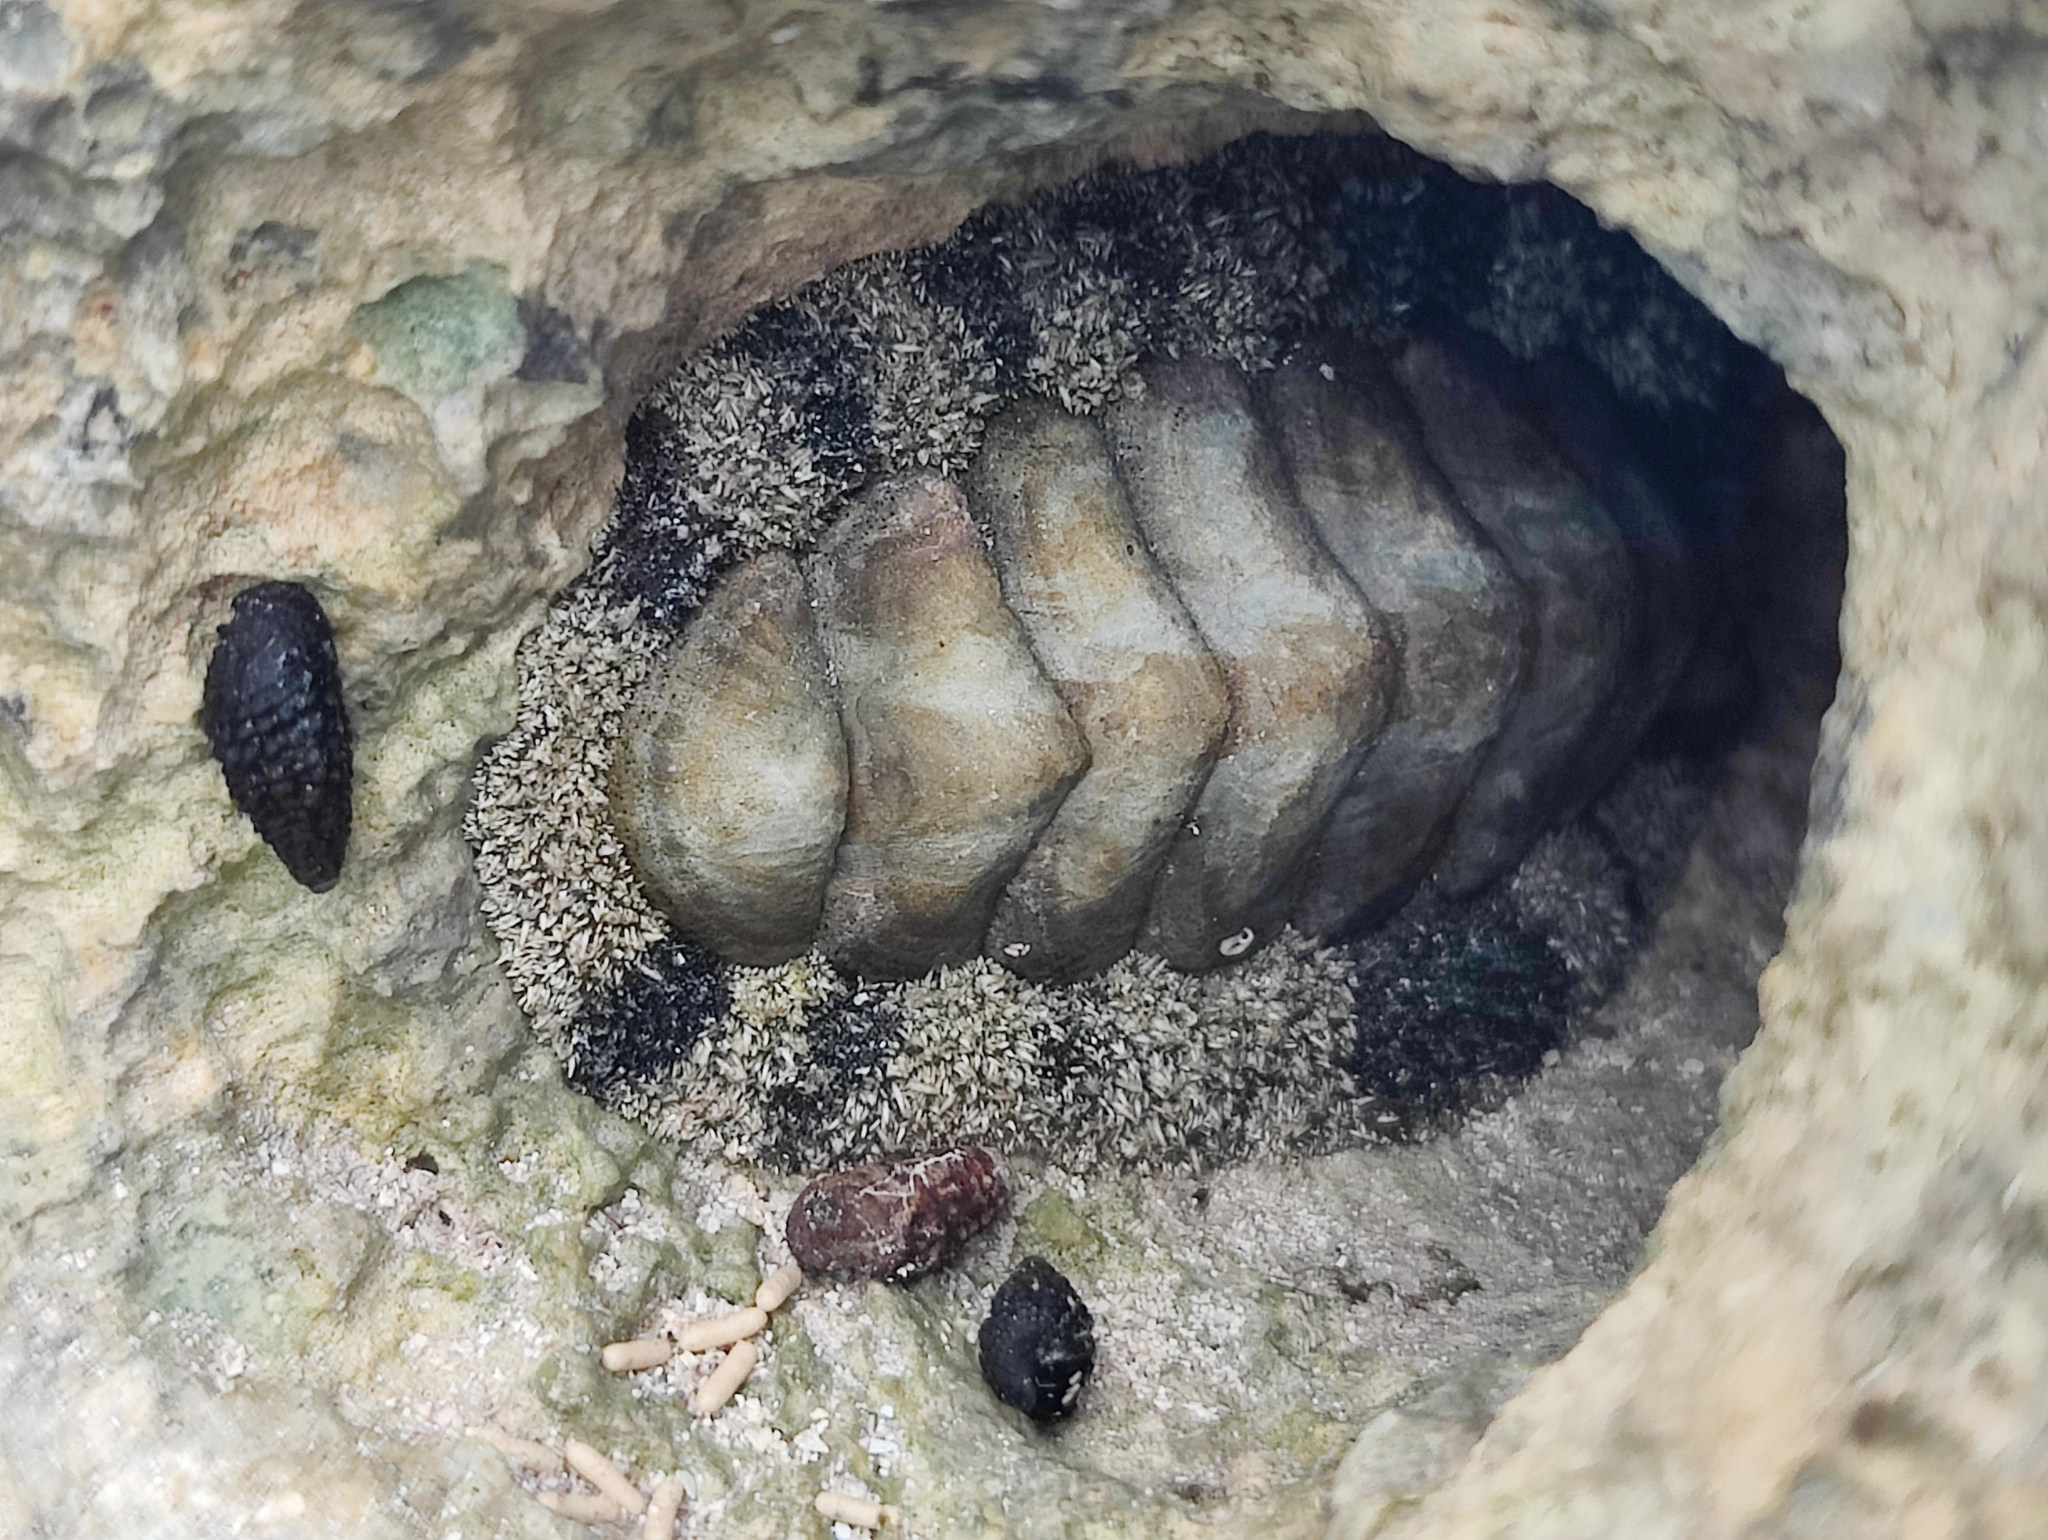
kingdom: Animalia
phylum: Mollusca
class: Polyplacophora
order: Chitonida
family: Chitonidae
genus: Acanthopleura
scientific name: Acanthopleura granulata
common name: West indian fuzzy chiton
